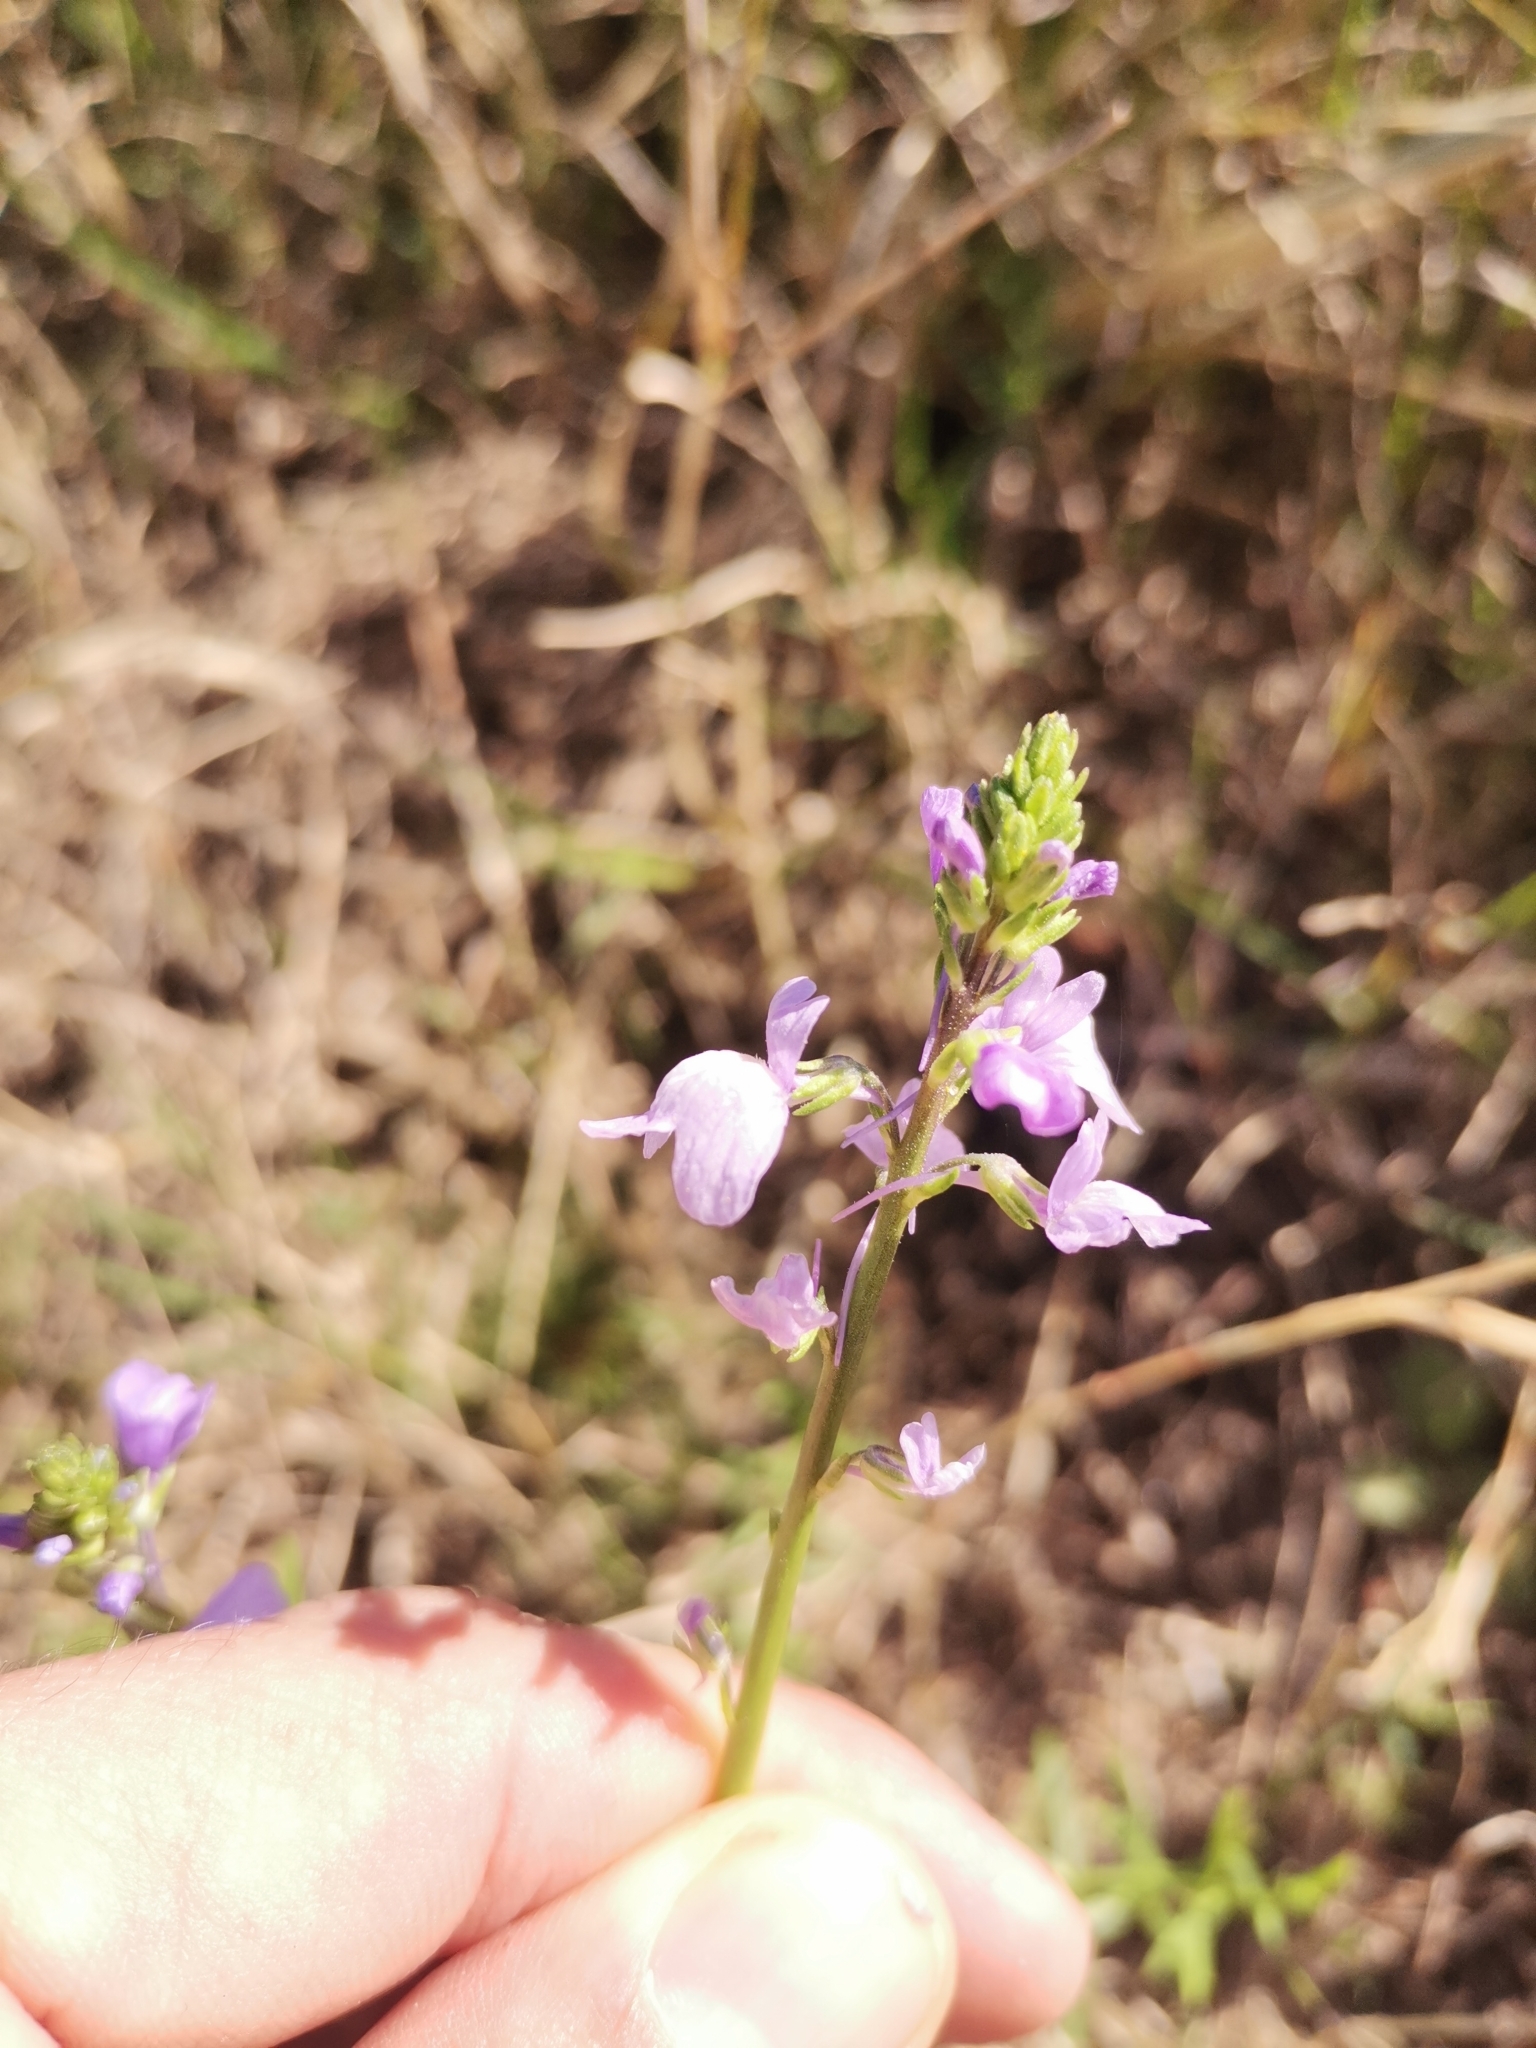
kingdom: Plantae
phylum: Tracheophyta
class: Magnoliopsida
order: Lamiales
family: Plantaginaceae
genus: Nuttallanthus
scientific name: Nuttallanthus texanus
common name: Texas toadflax
